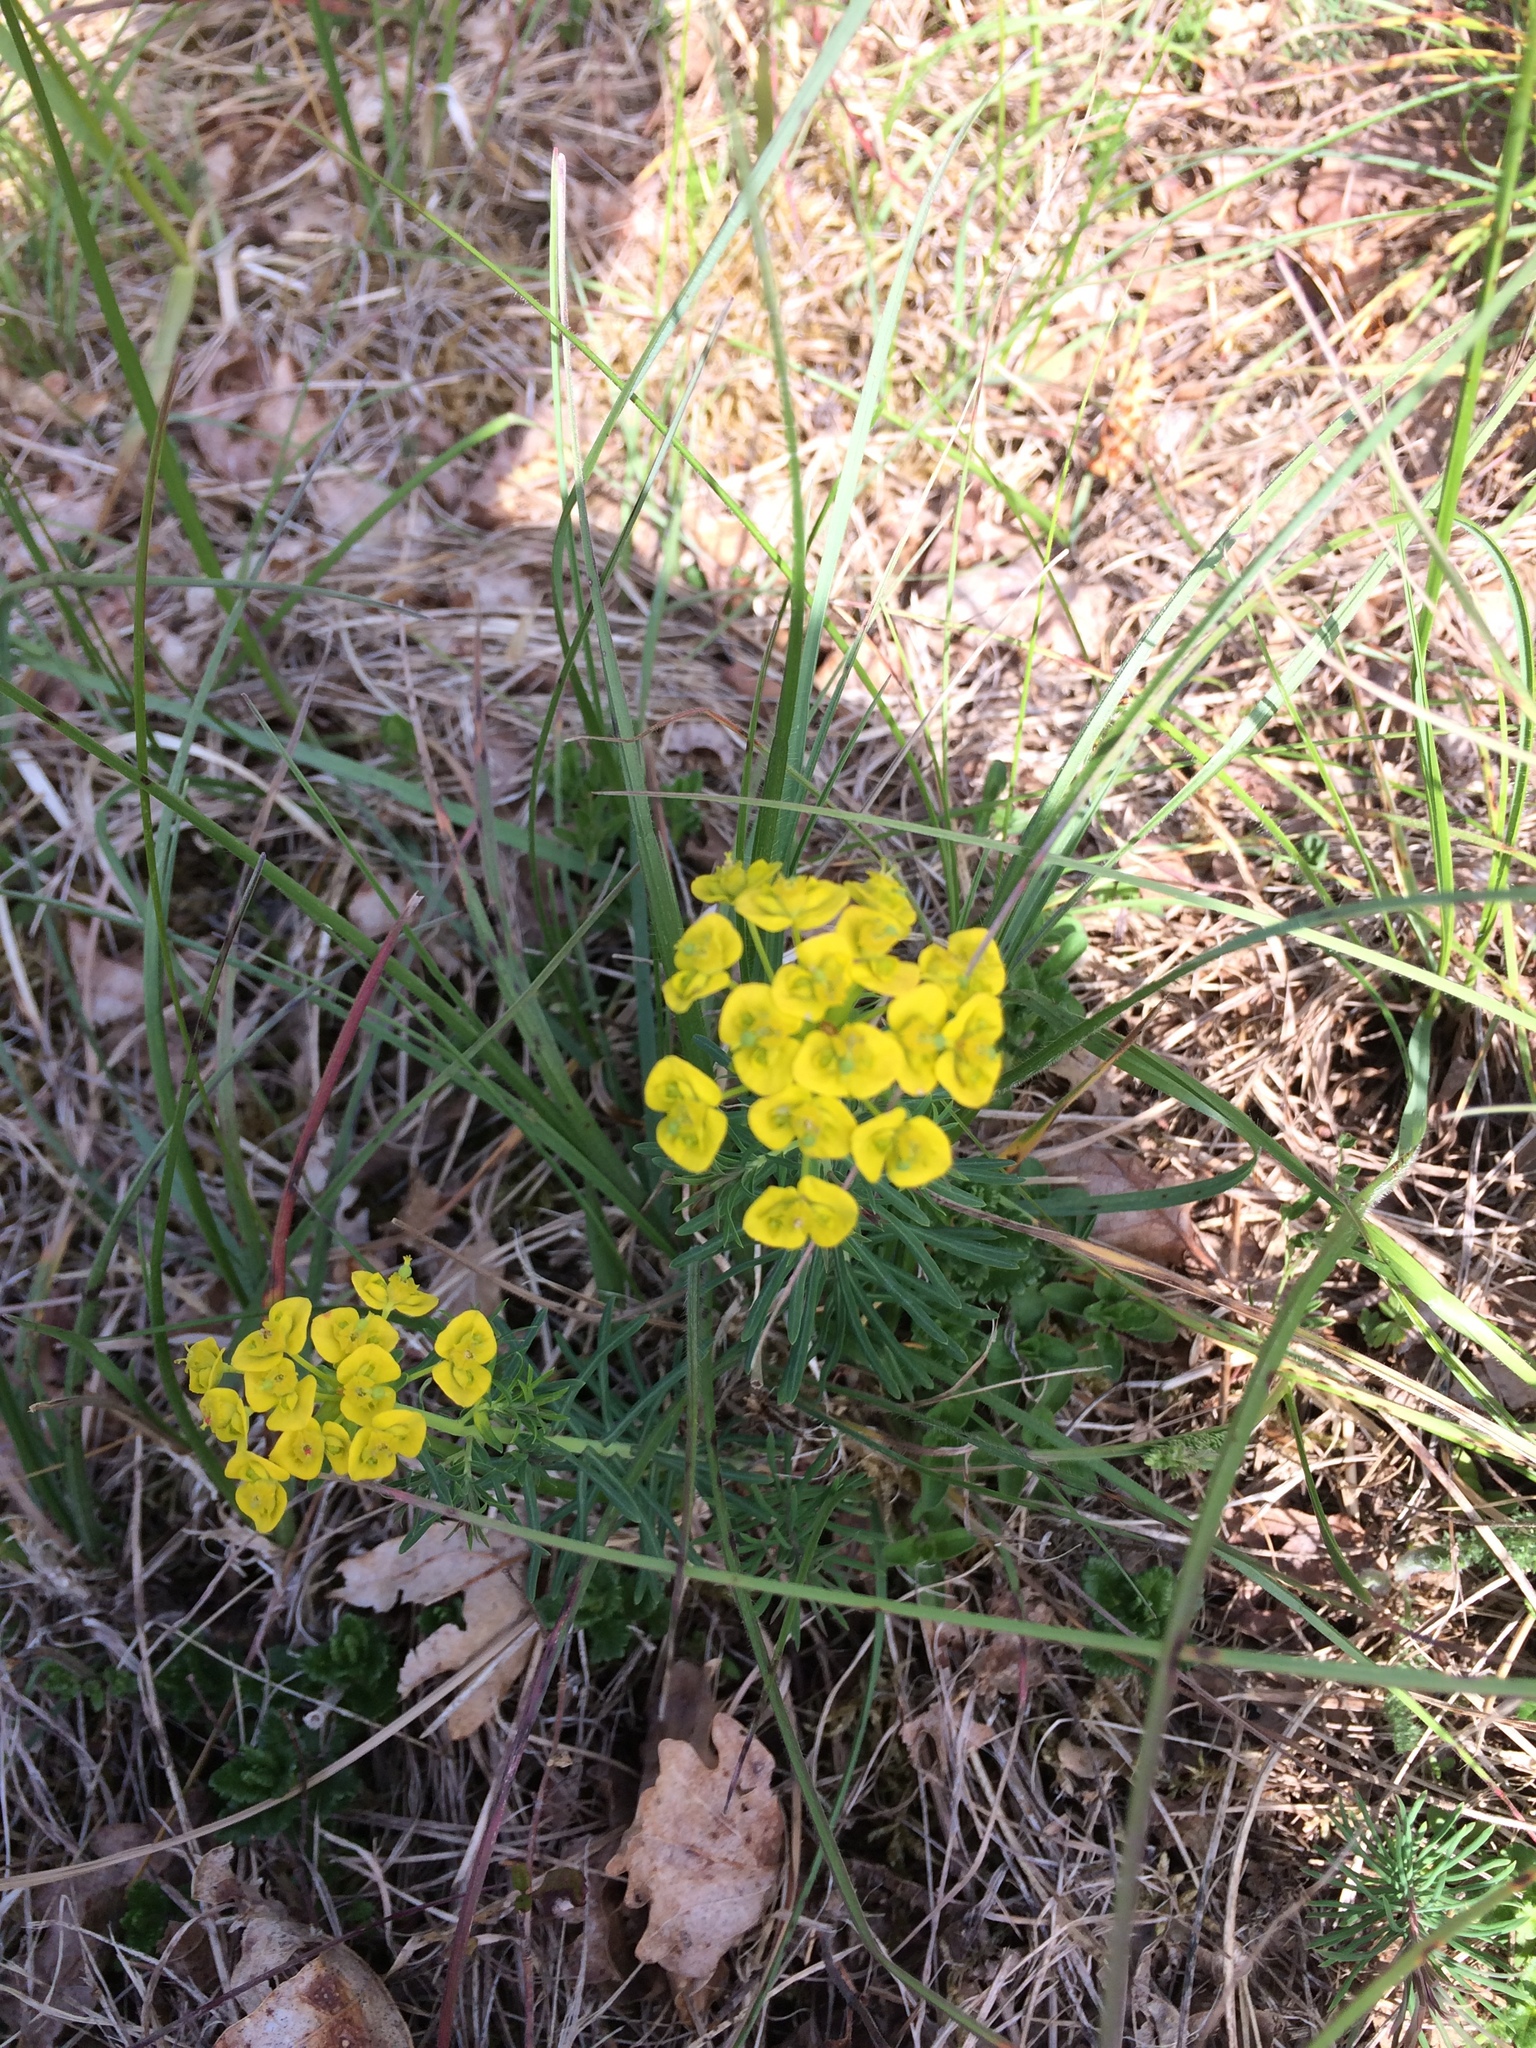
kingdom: Plantae
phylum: Tracheophyta
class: Magnoliopsida
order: Malpighiales
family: Euphorbiaceae
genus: Euphorbia
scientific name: Euphorbia cyparissias
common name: Cypress spurge
